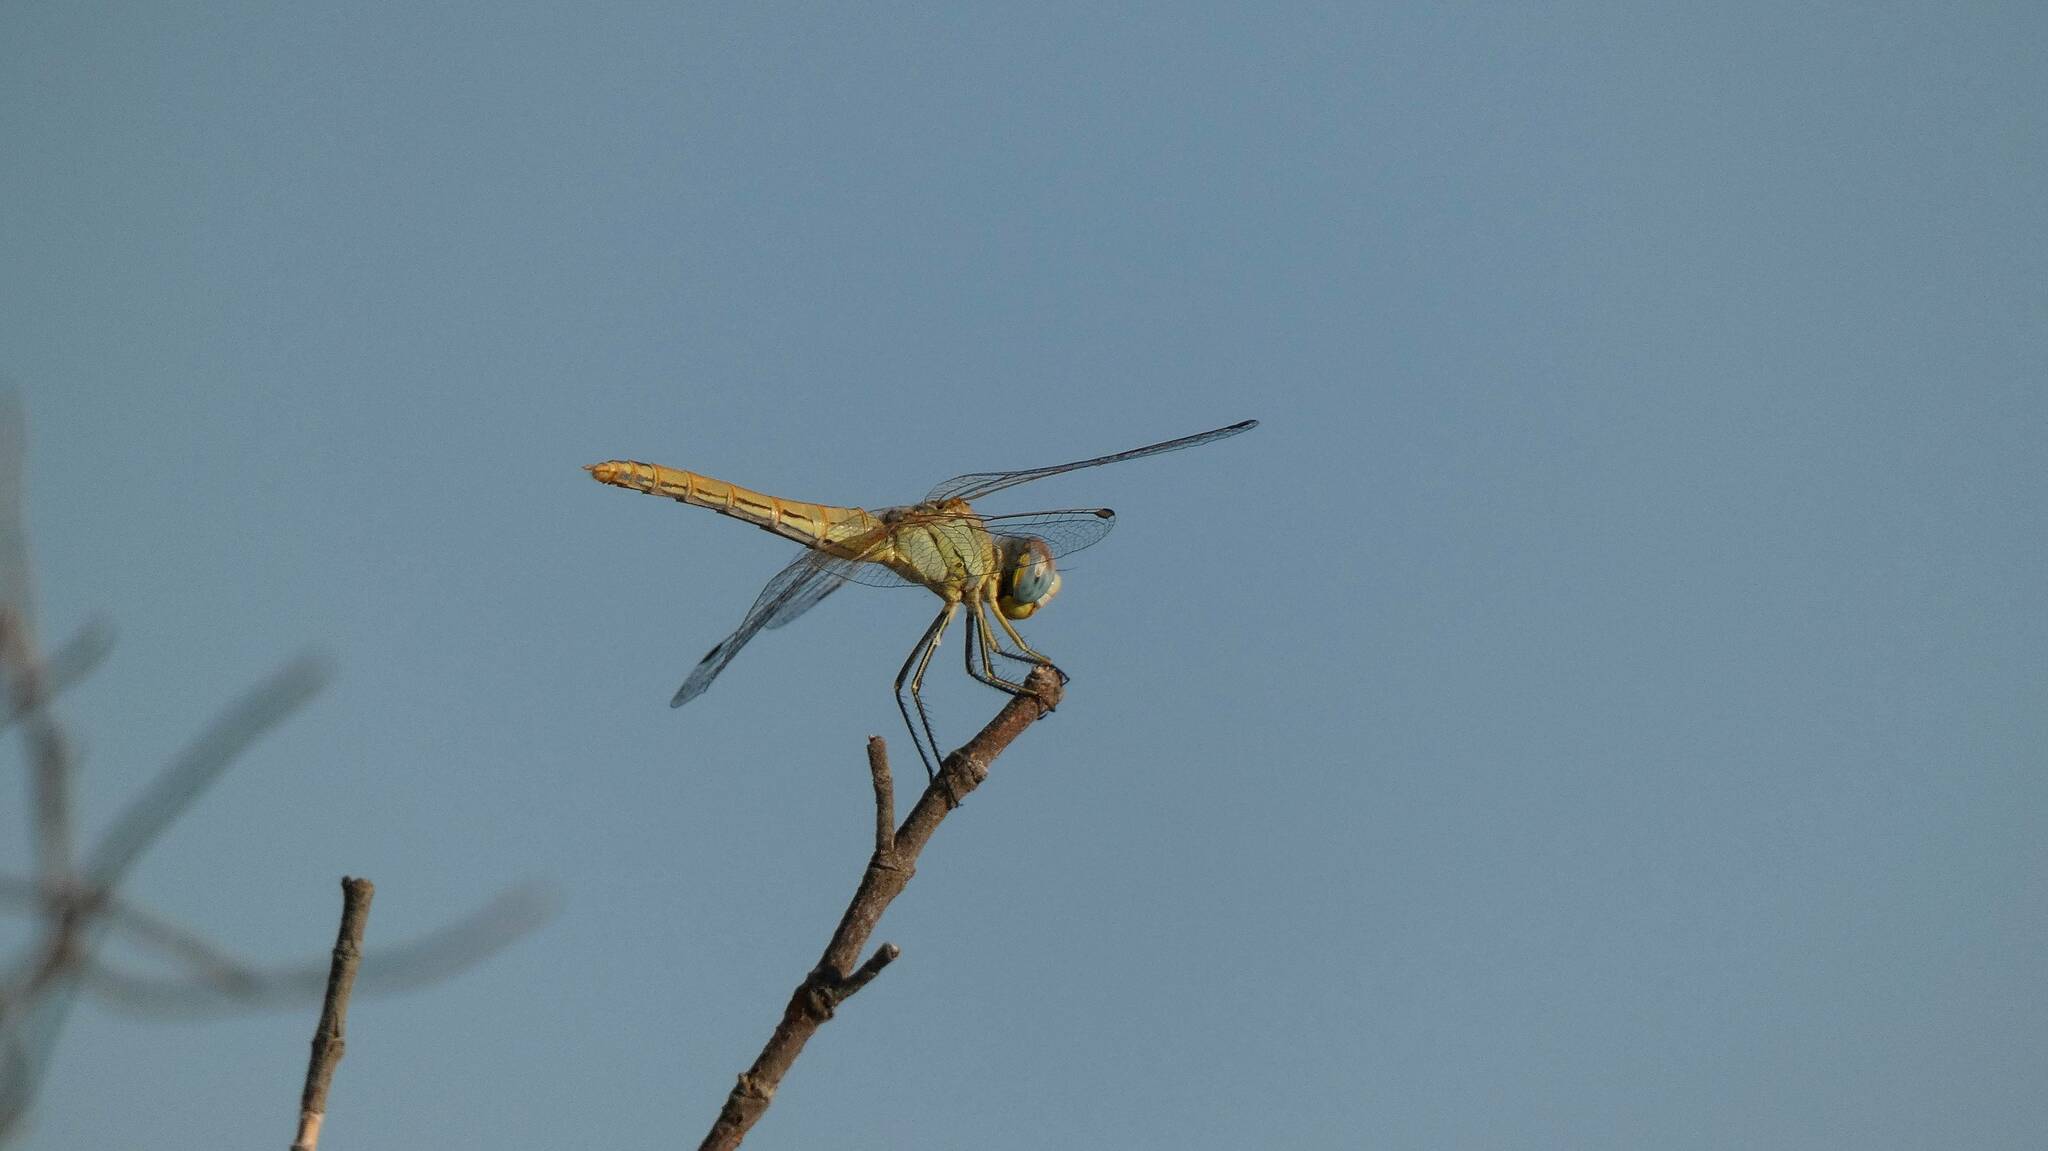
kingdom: Animalia
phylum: Arthropoda
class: Insecta
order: Odonata
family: Libellulidae
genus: Sympetrum
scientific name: Sympetrum fonscolombii
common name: Red-veined darter
